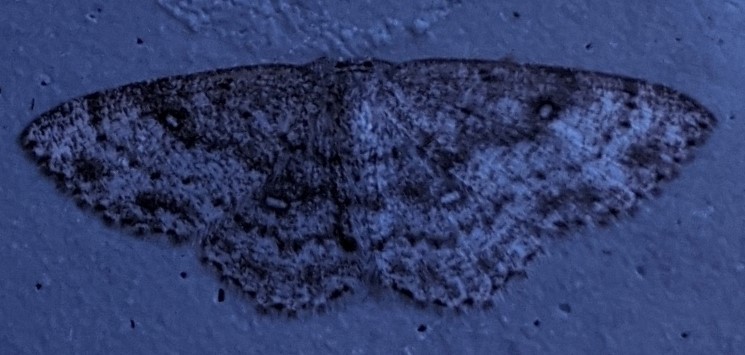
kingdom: Animalia
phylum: Arthropoda
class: Insecta
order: Lepidoptera
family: Geometridae
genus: Cyclophora
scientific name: Cyclophora pendulinaria
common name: Sweet fern geometer
